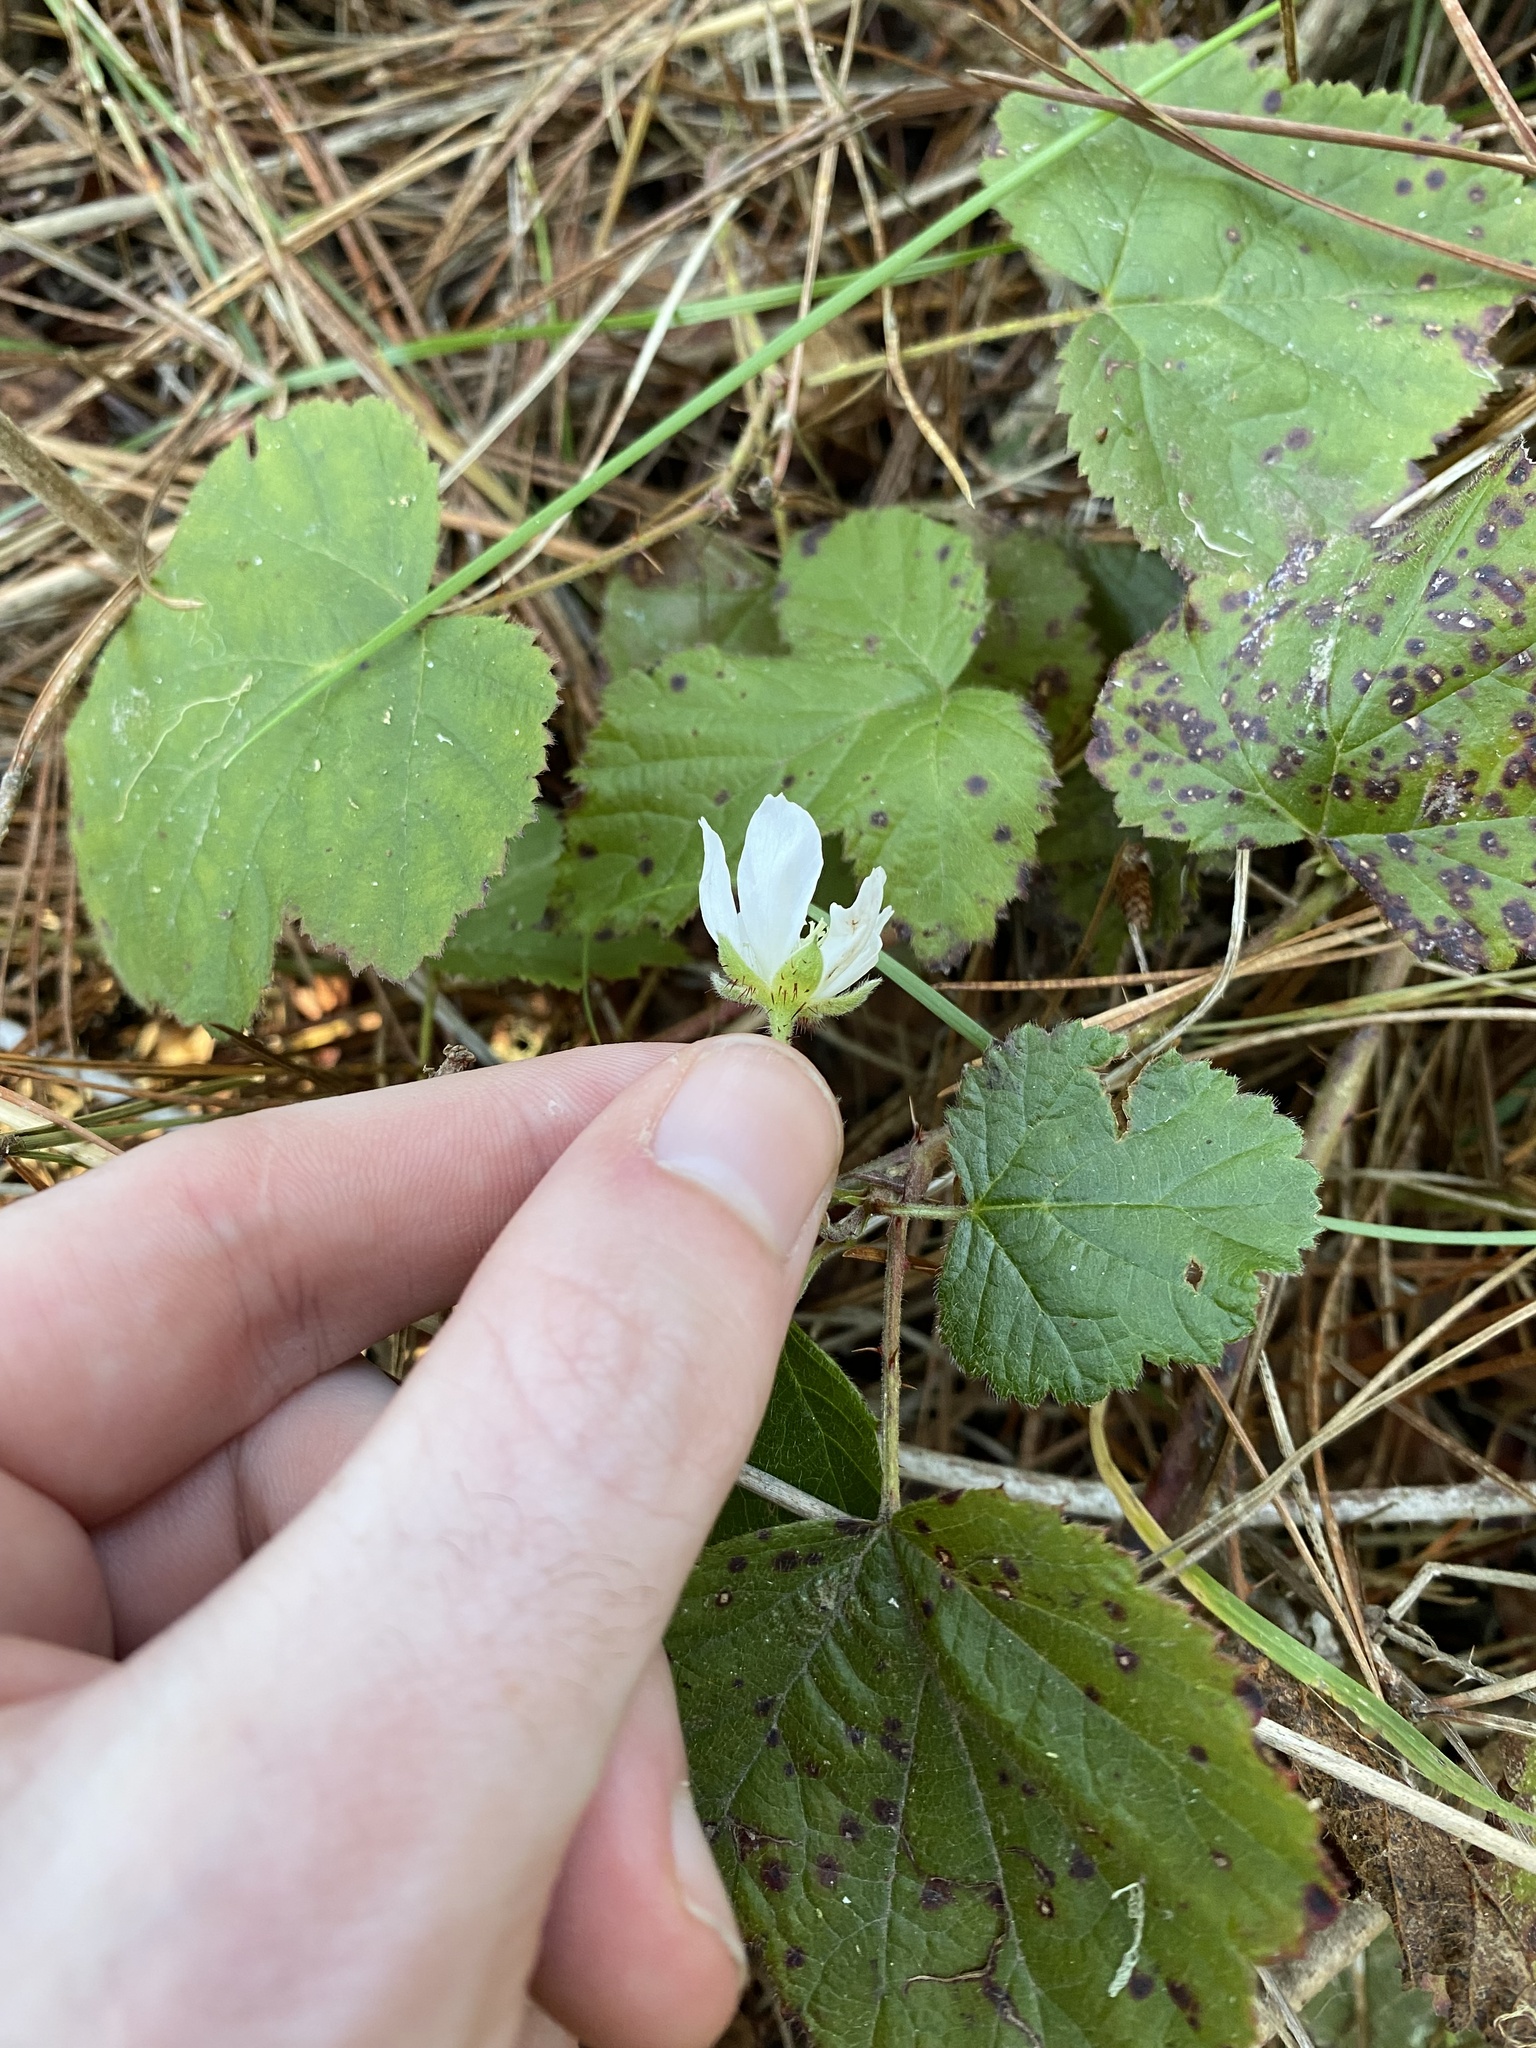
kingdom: Plantae
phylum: Tracheophyta
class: Magnoliopsida
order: Rosales
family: Rosaceae
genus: Rubus
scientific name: Rubus ursinus
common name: Pacific blackberry
